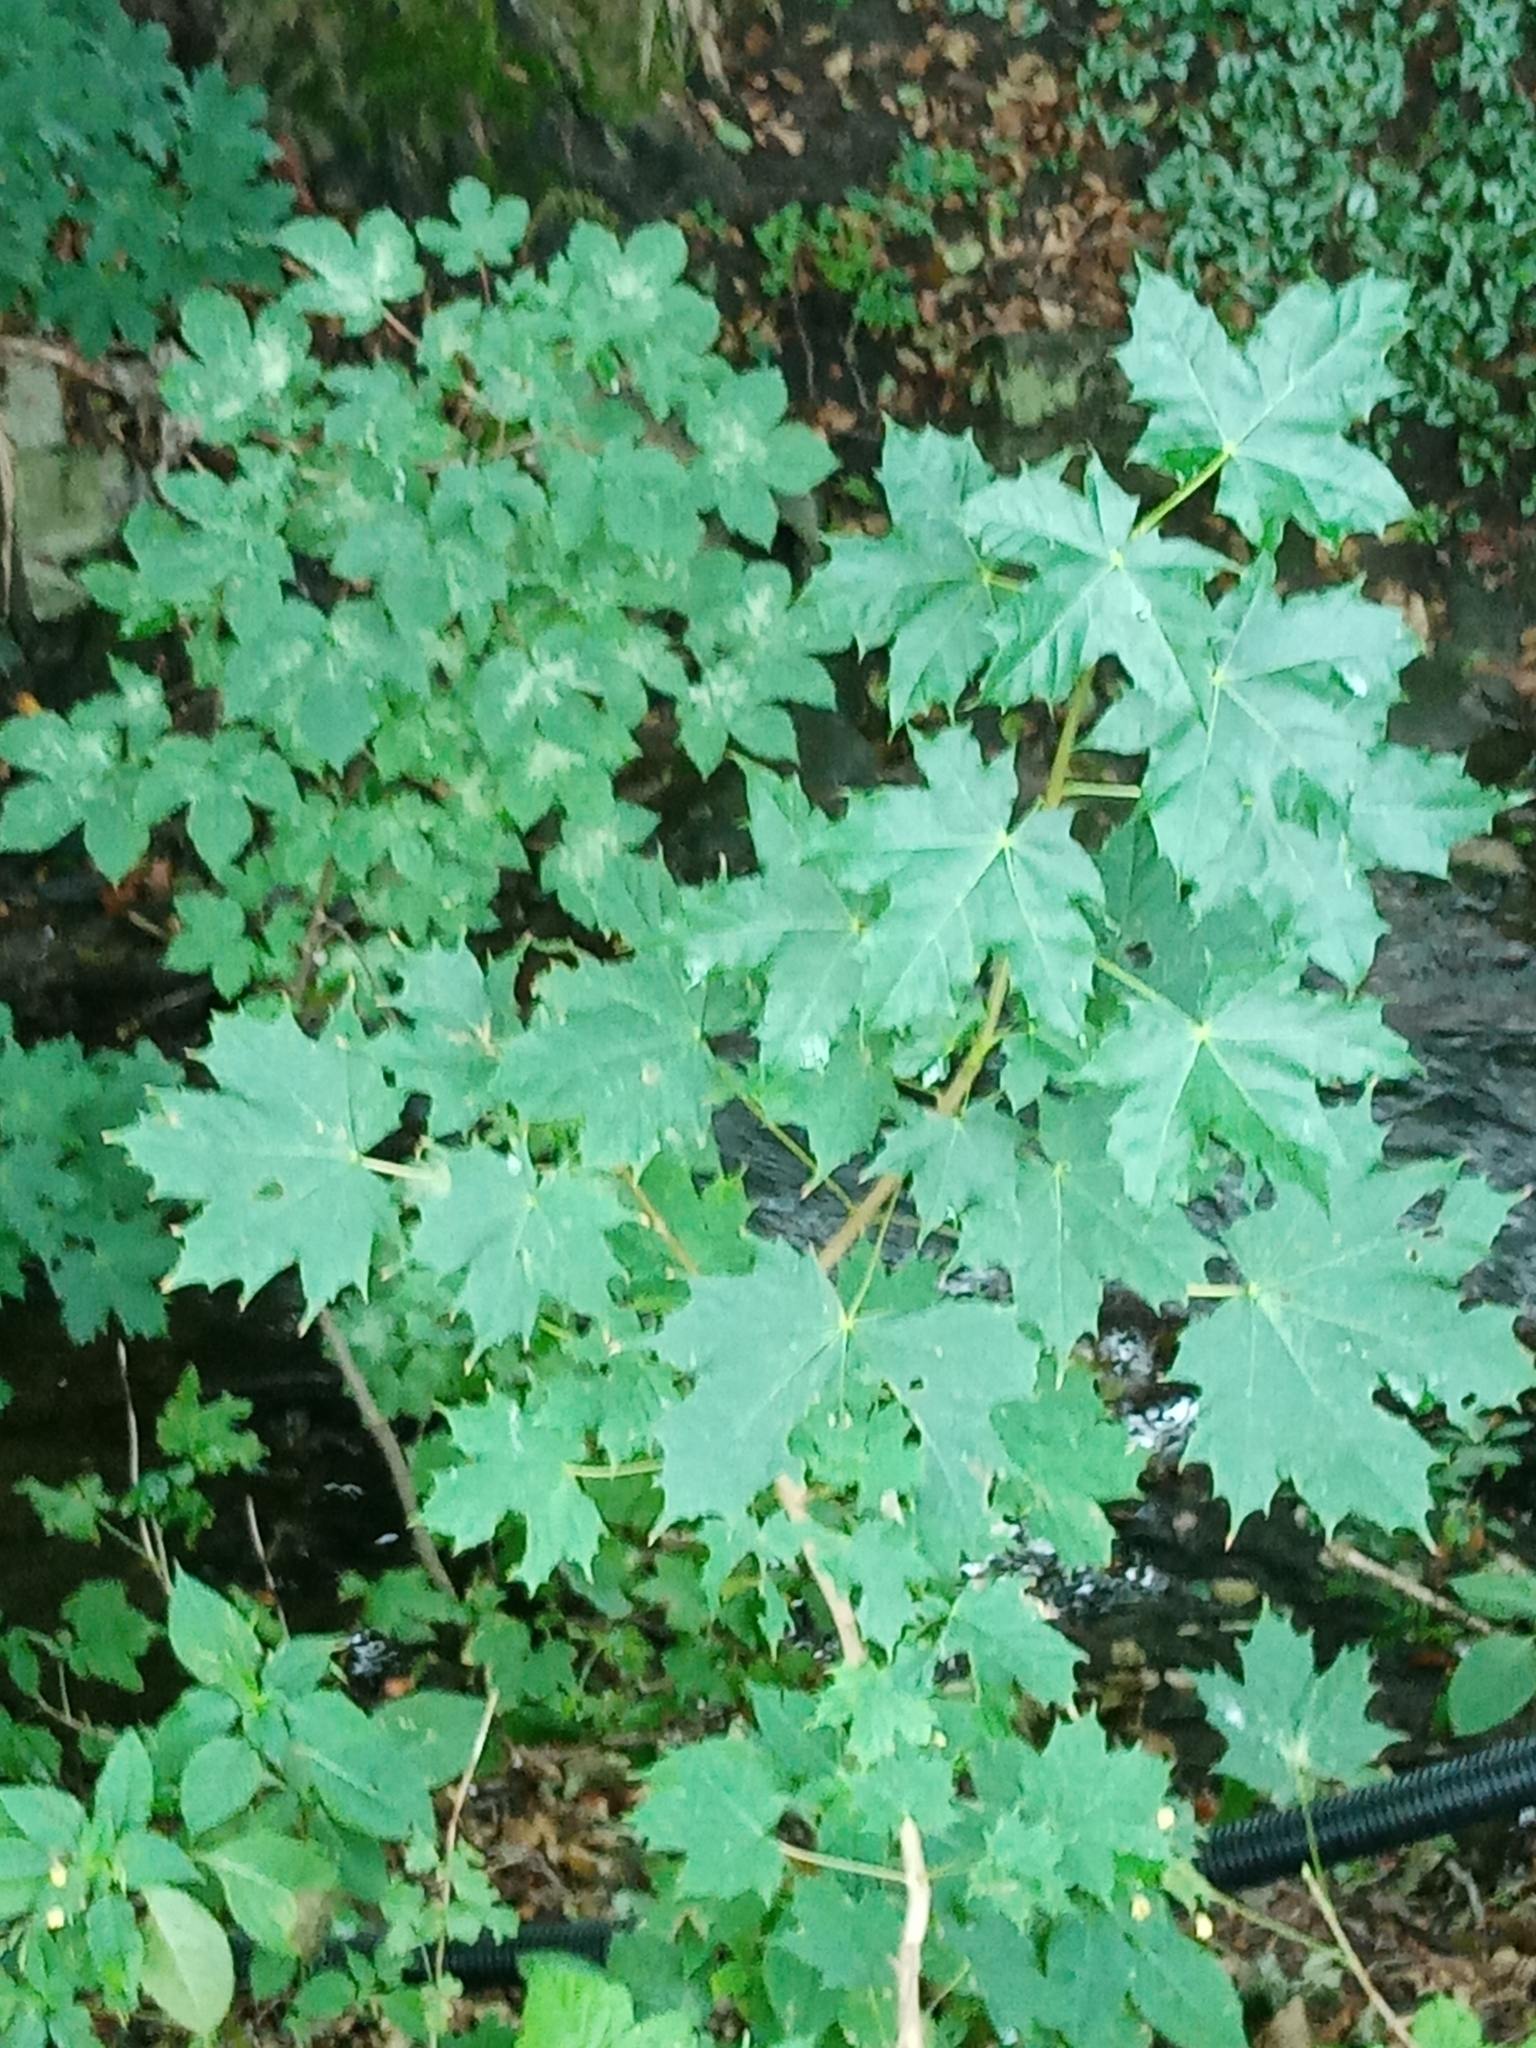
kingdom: Plantae
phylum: Tracheophyta
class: Magnoliopsida
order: Sapindales
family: Sapindaceae
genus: Acer
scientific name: Acer platanoides
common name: Norway maple
